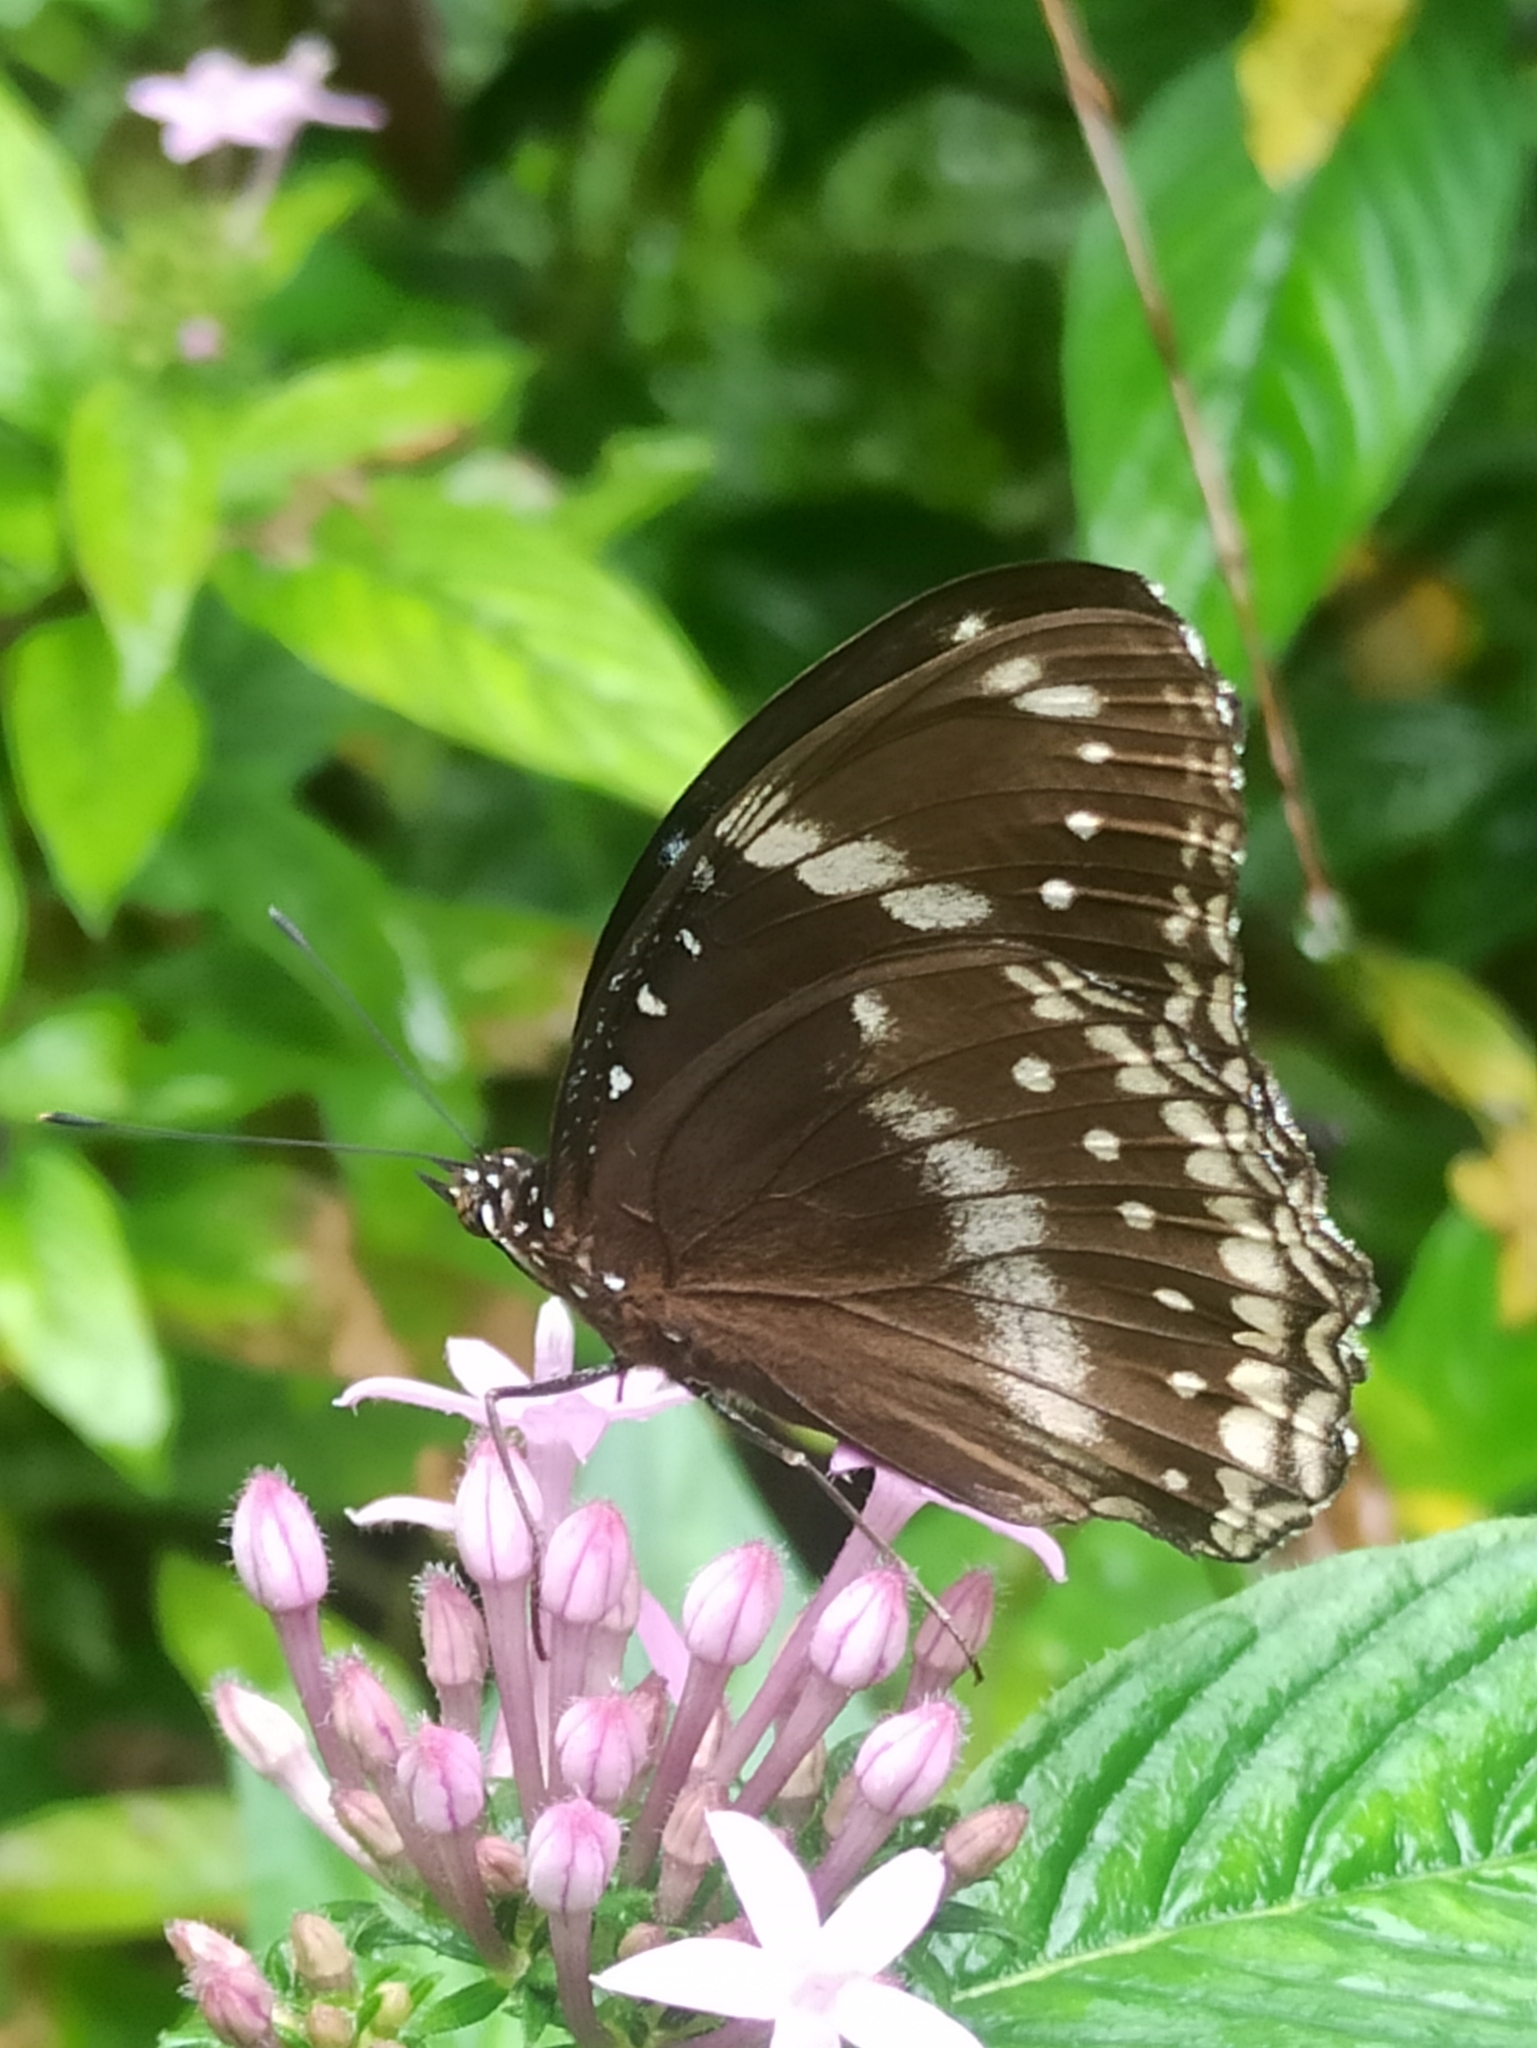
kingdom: Animalia
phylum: Arthropoda
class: Insecta
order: Lepidoptera
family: Nymphalidae
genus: Hypolimnas
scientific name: Hypolimnas bolina
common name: Great eggfly
